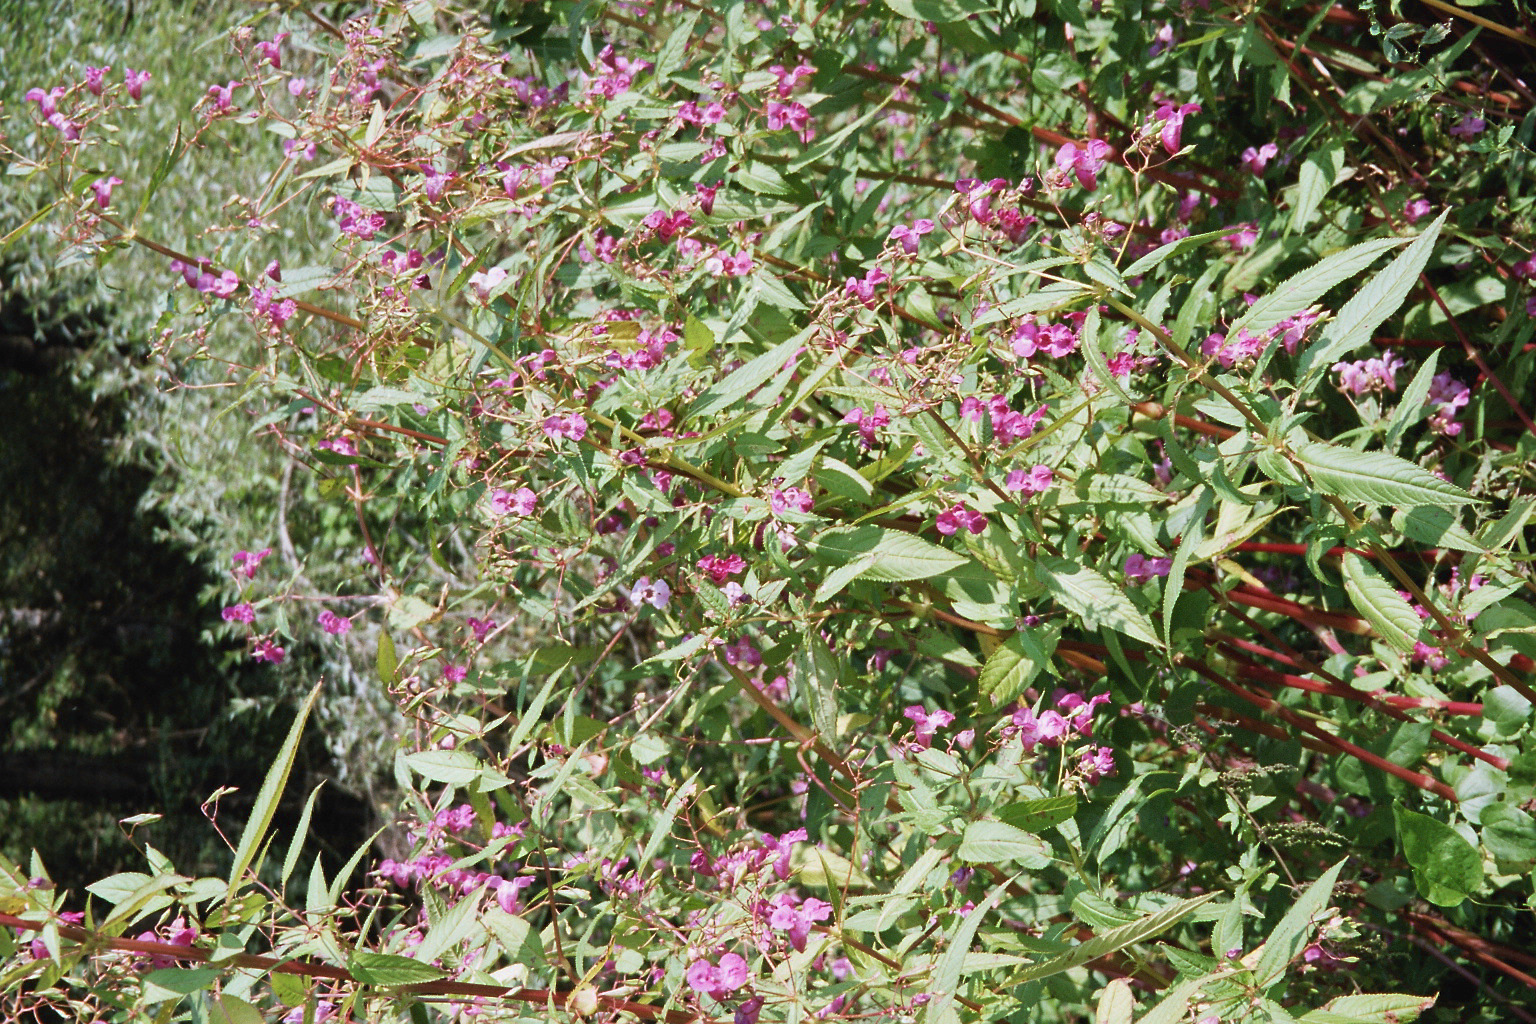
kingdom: Plantae
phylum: Tracheophyta
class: Magnoliopsida
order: Ericales
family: Balsaminaceae
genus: Impatiens
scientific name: Impatiens glandulifera
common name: Himalayan balsam
